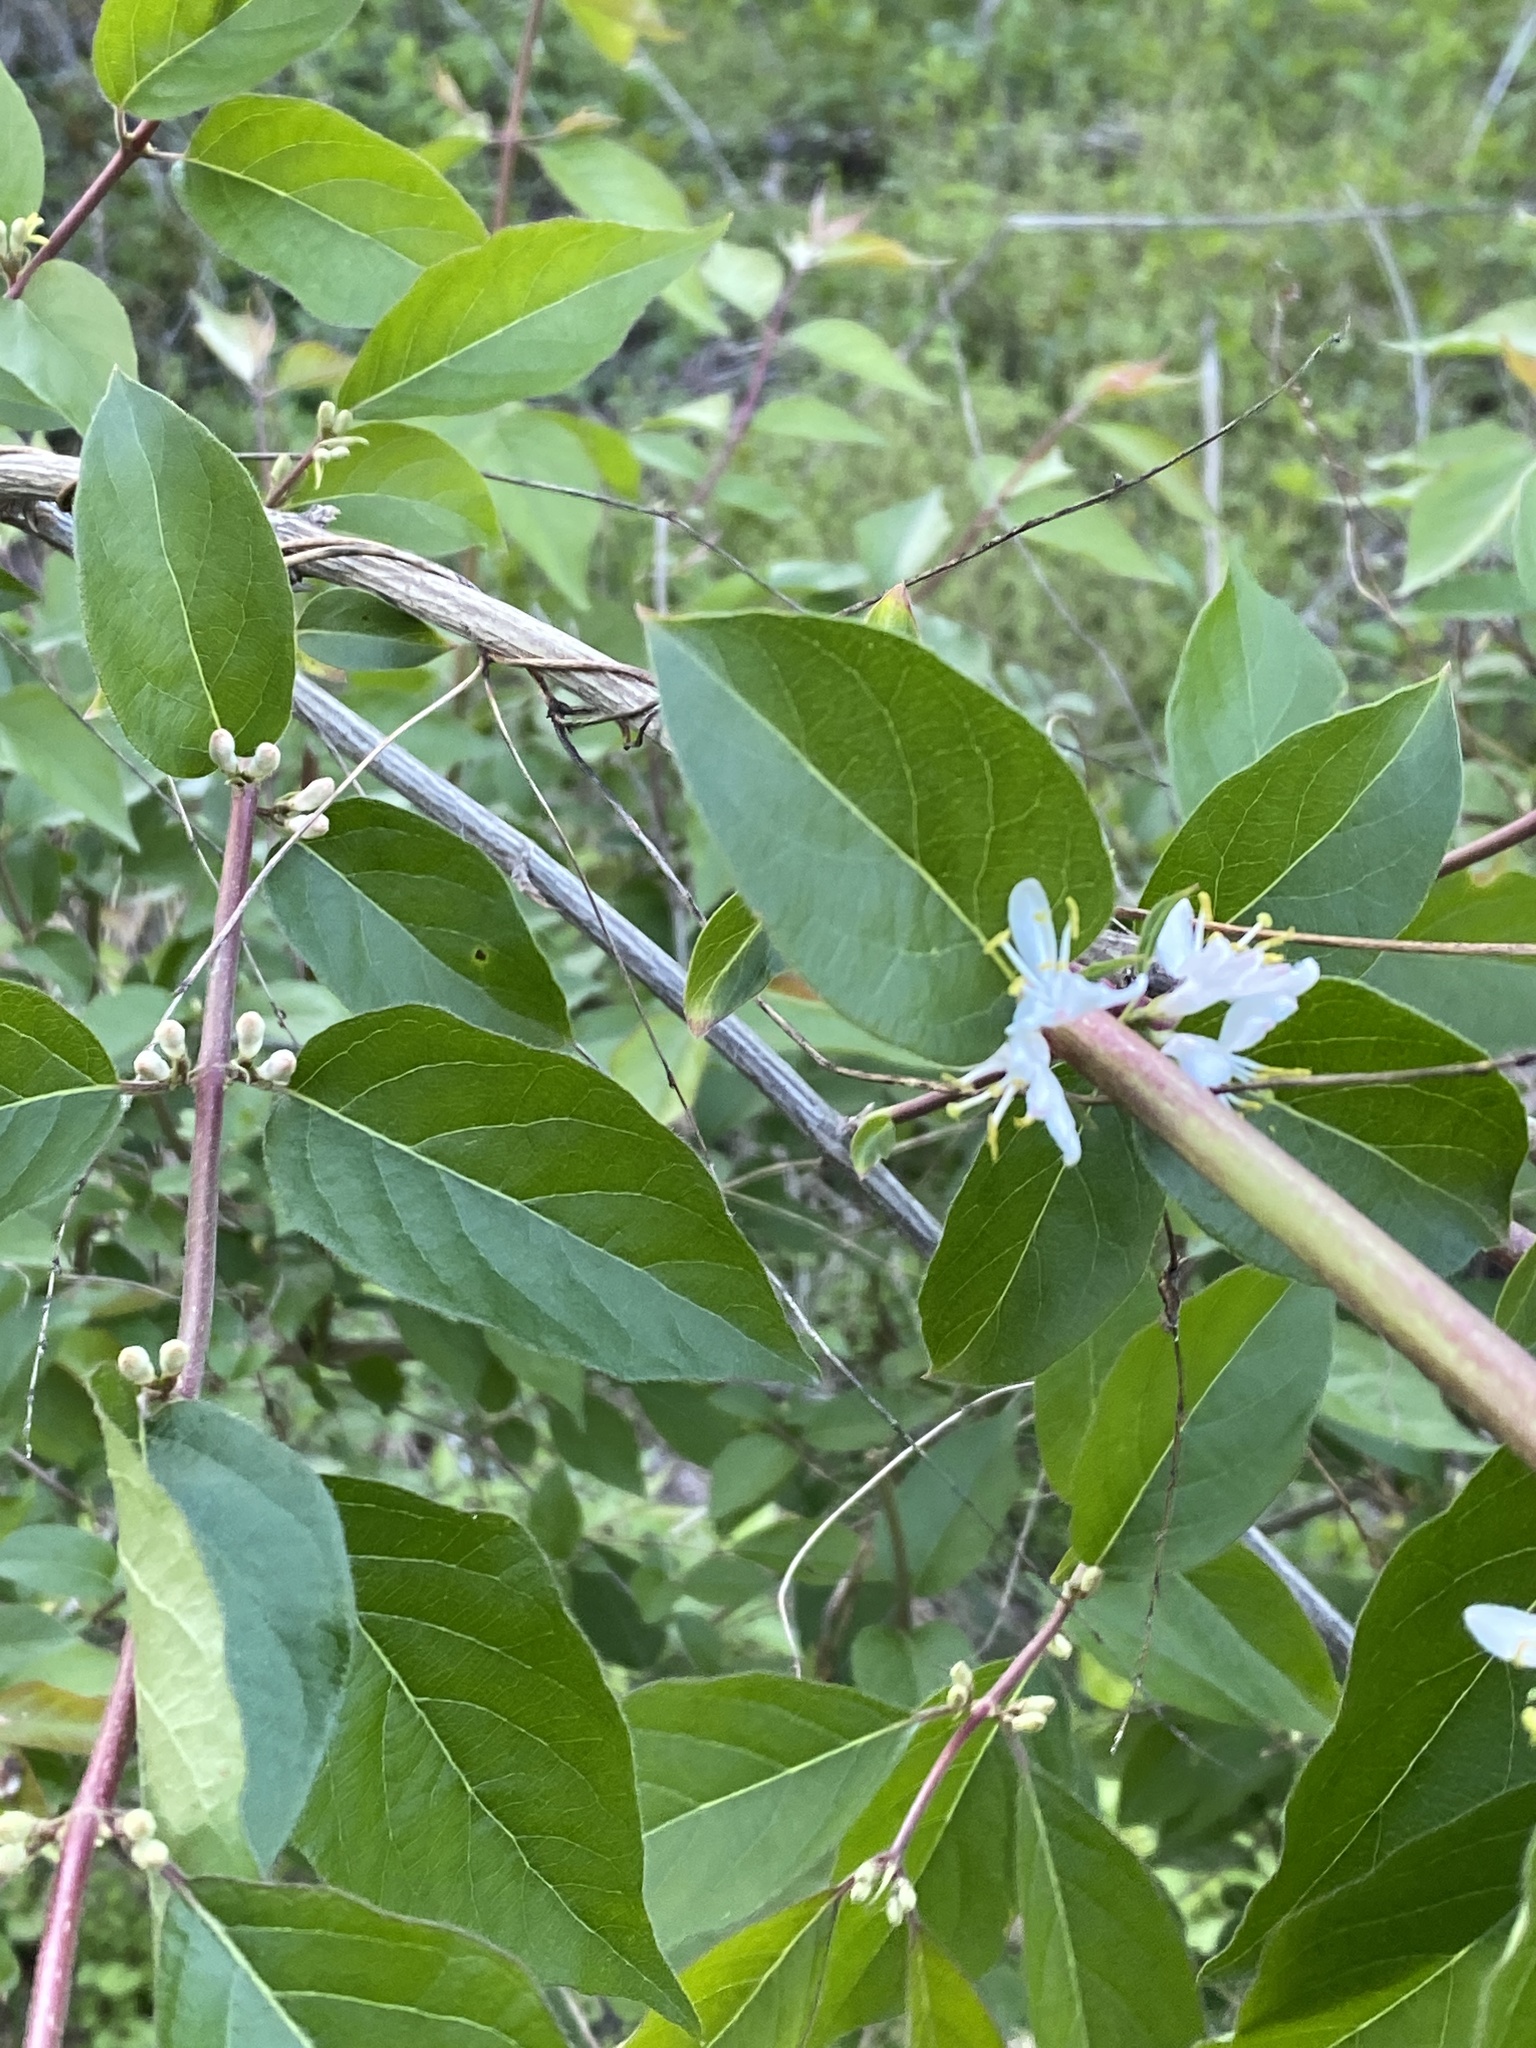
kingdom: Plantae
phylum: Tracheophyta
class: Magnoliopsida
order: Dipsacales
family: Caprifoliaceae
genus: Lonicera
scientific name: Lonicera maackii
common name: Amur honeysuckle
